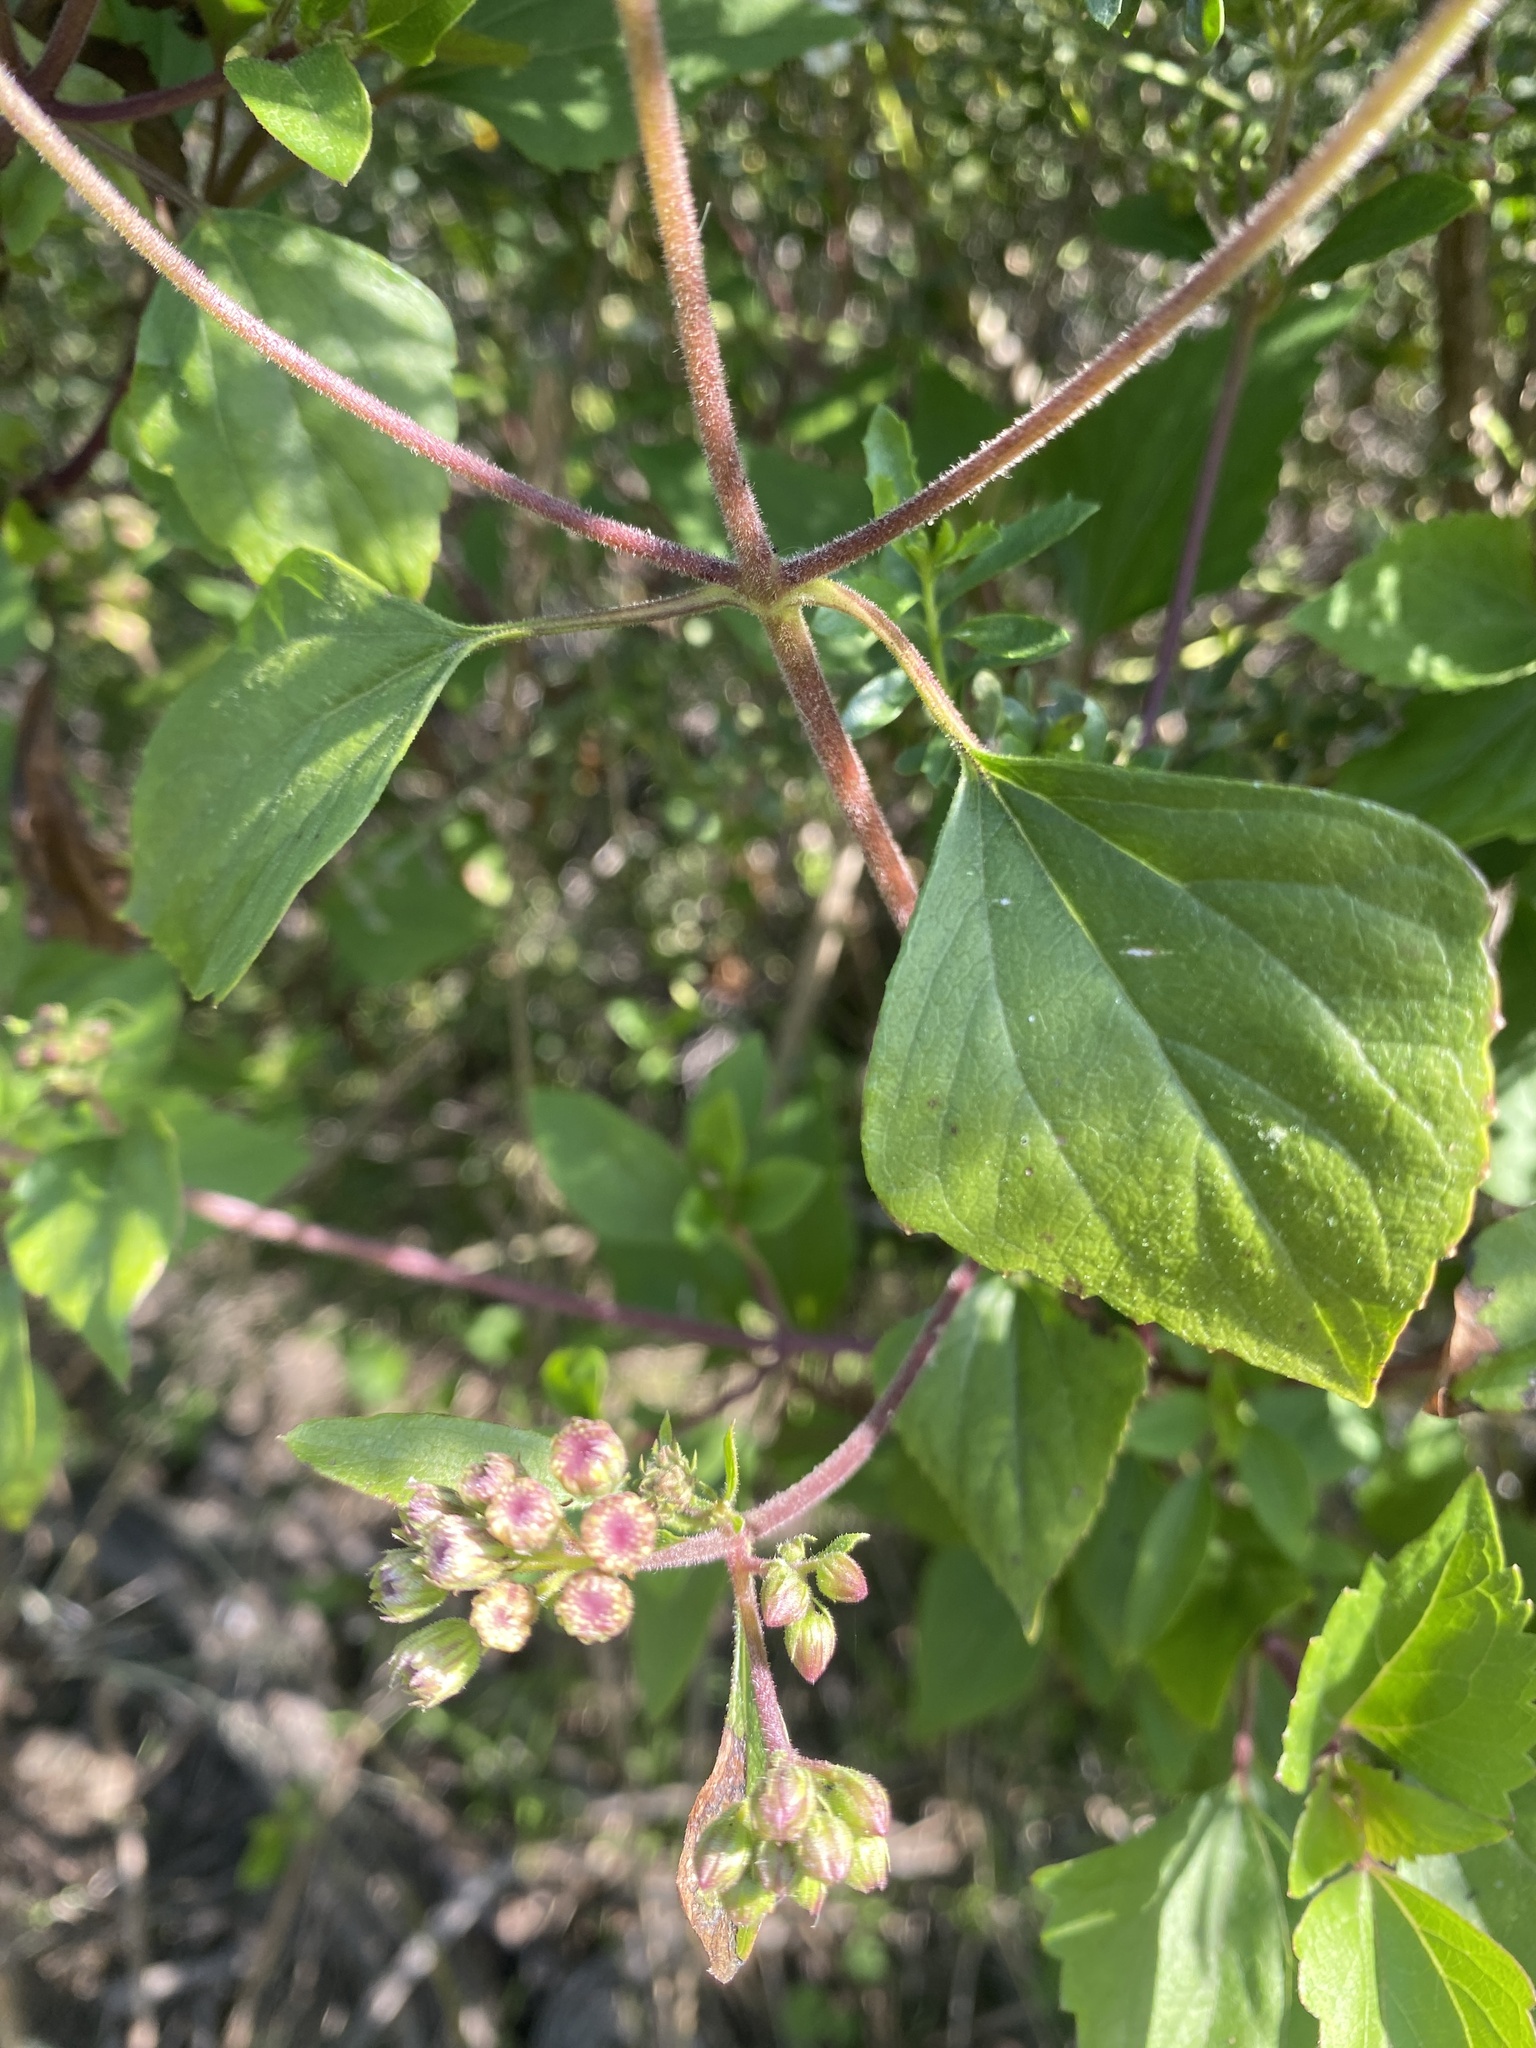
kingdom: Plantae
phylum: Tracheophyta
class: Magnoliopsida
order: Asterales
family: Asteraceae
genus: Ageratina
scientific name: Ageratina adenophora
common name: Sticky snakeroot
